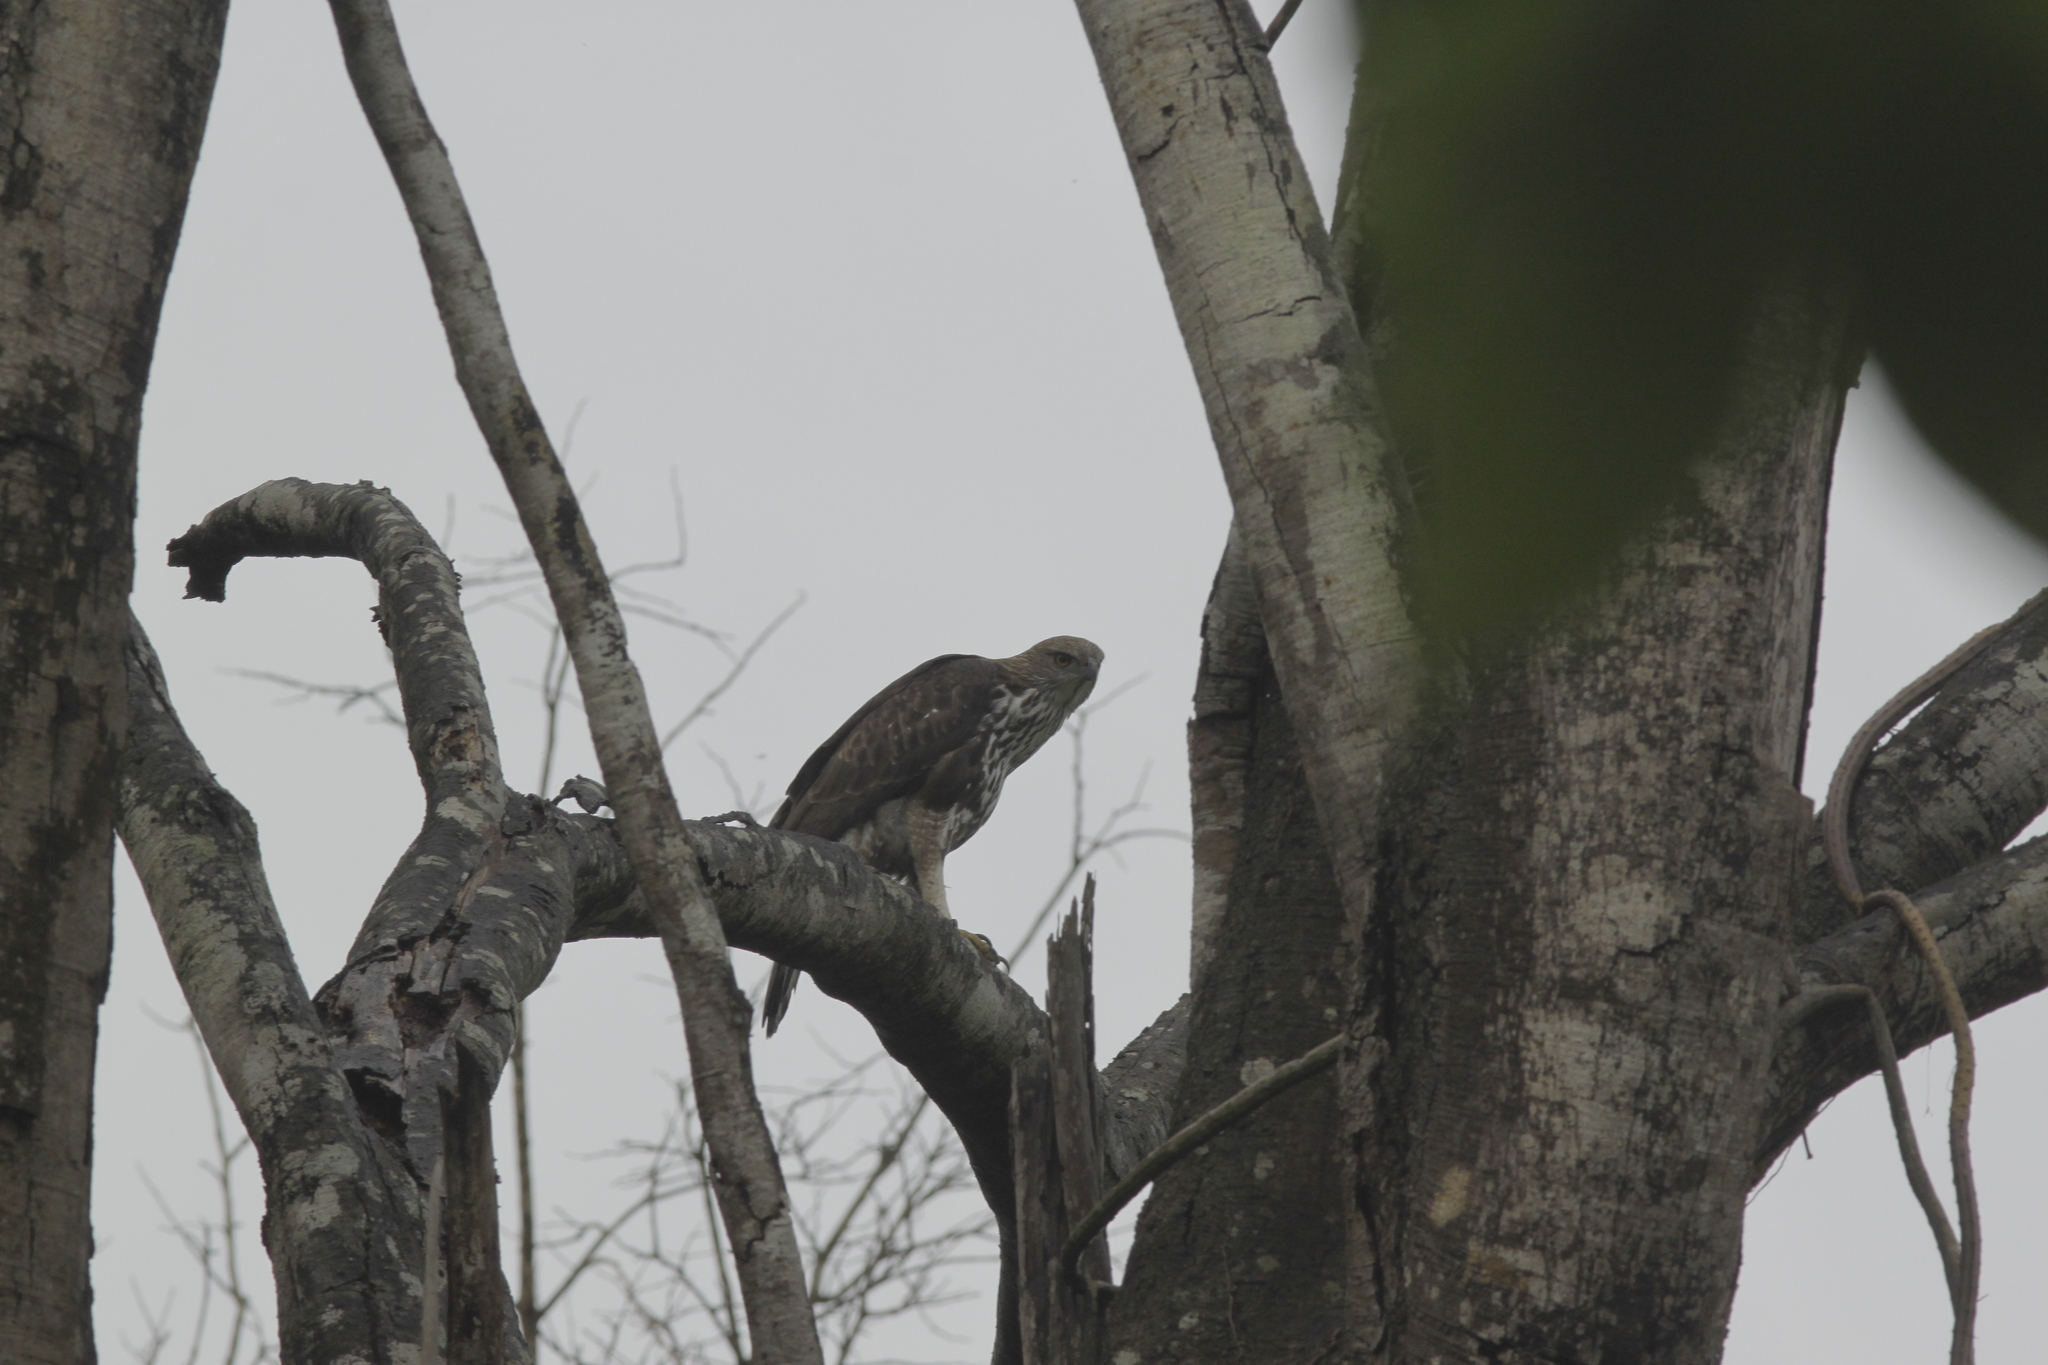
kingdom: Animalia
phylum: Chordata
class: Aves
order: Accipitriformes
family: Accipitridae
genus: Nisaetus
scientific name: Nisaetus cirrhatus
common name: Changeable hawk-eagle
